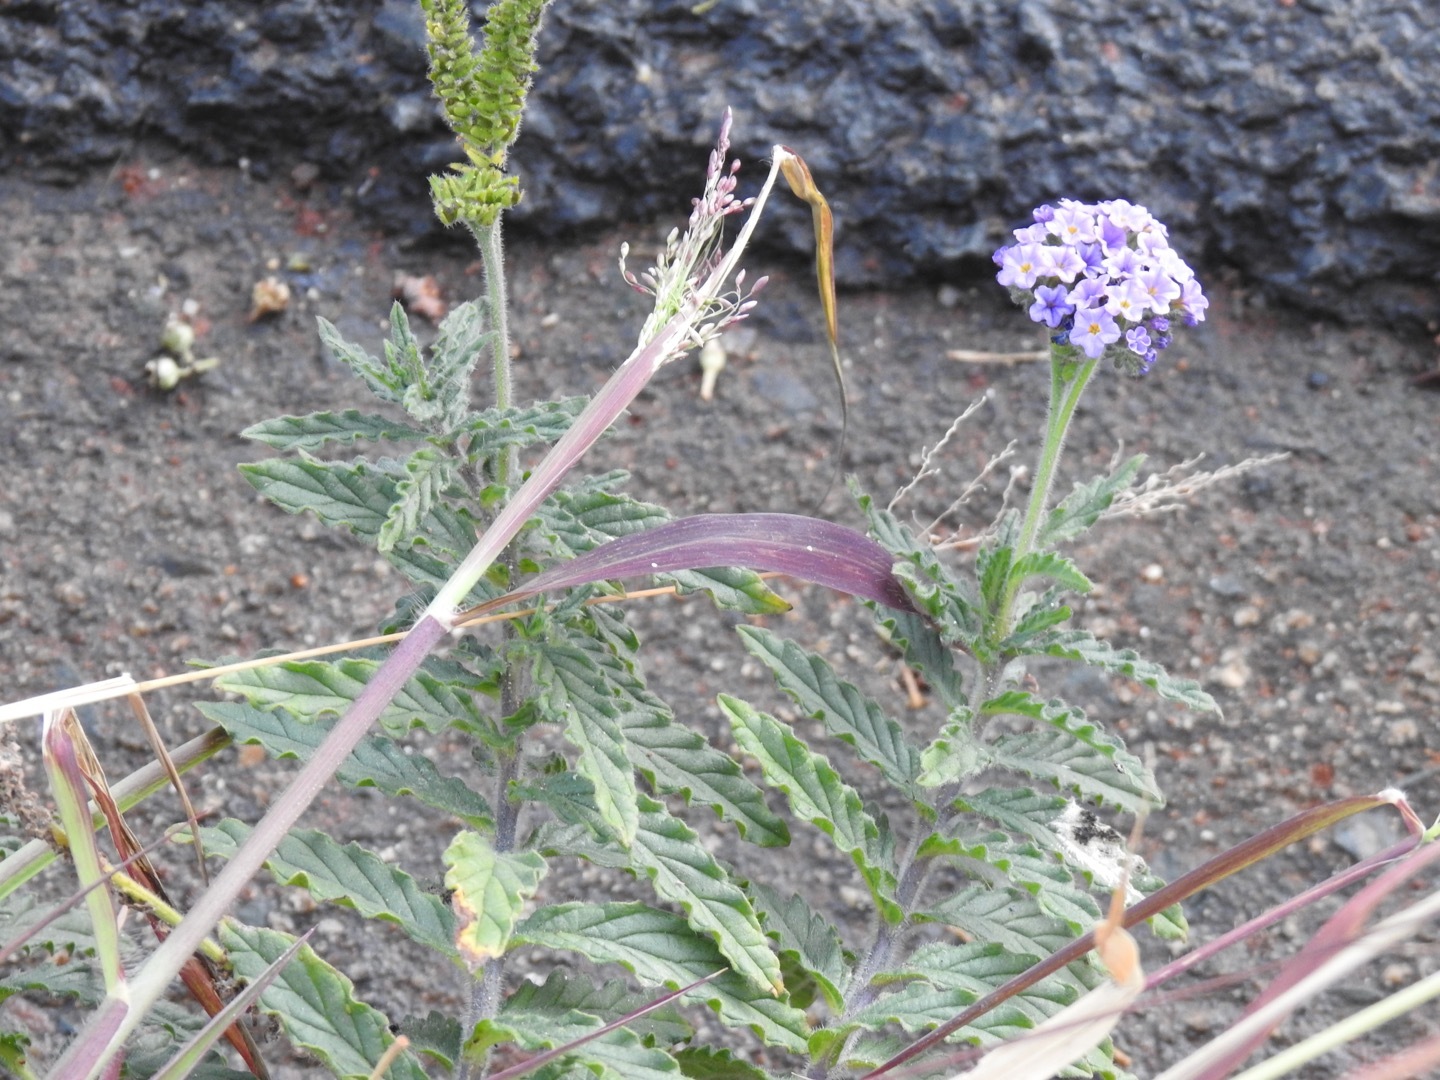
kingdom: Plantae
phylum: Tracheophyta
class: Magnoliopsida
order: Boraginales
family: Heliotropiaceae
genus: Heliotropium
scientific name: Heliotropium amplexicaule
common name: Clasping heliotrope
